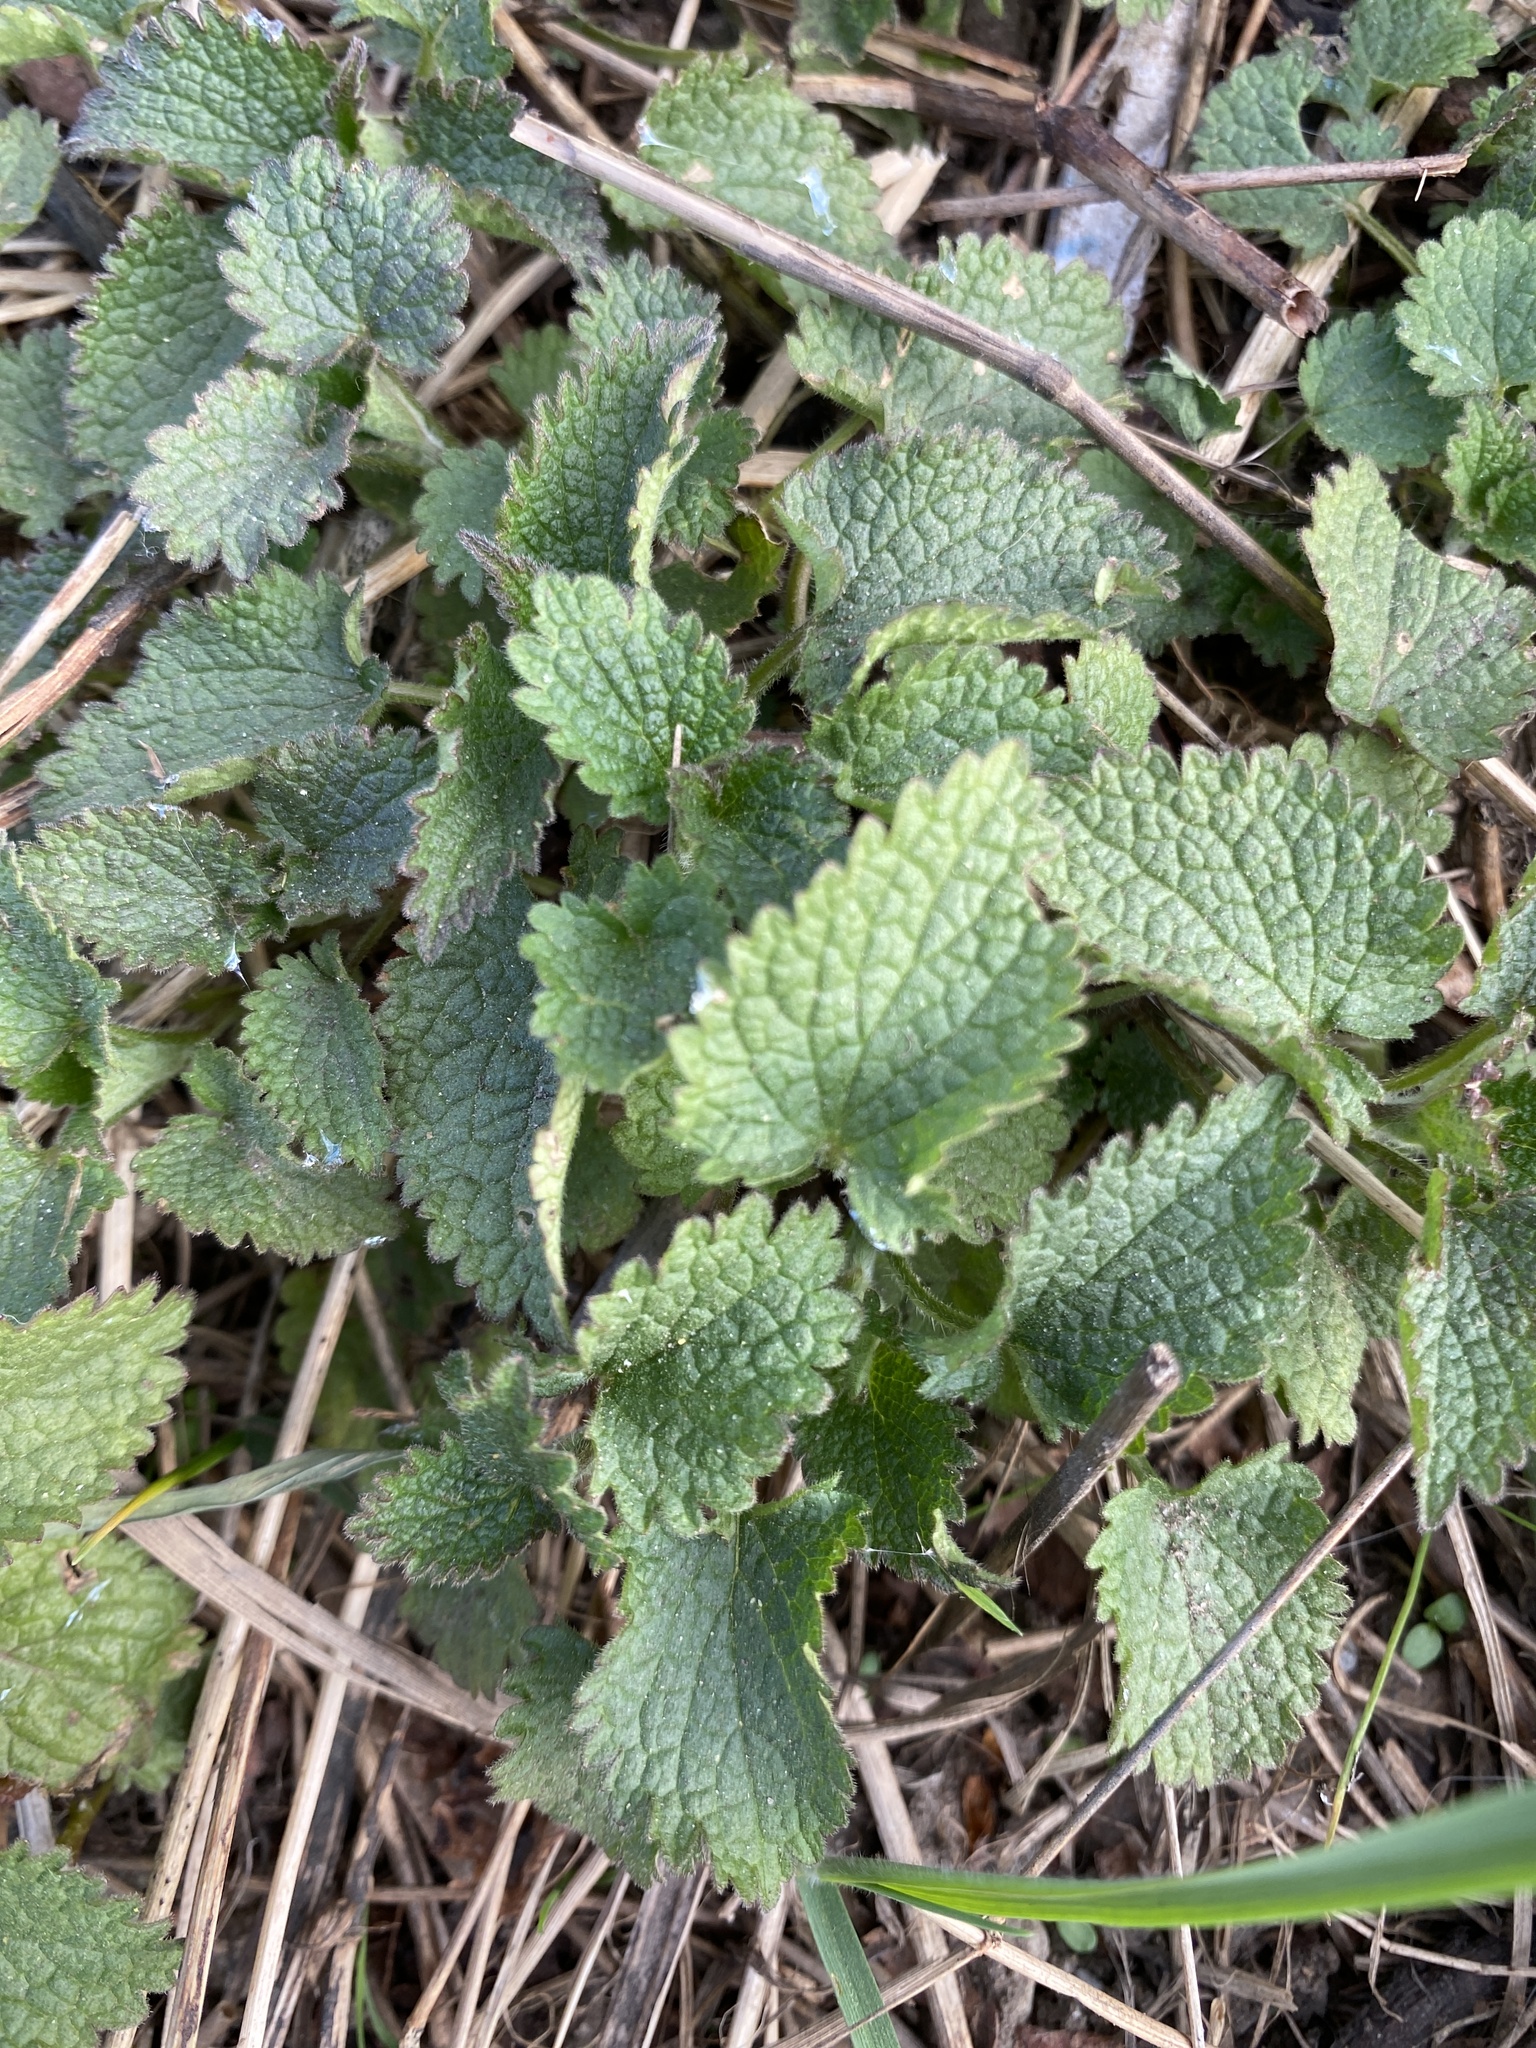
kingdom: Plantae
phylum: Tracheophyta
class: Magnoliopsida
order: Lamiales
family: Lamiaceae
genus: Lamium
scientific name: Lamium album
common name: White dead-nettle
